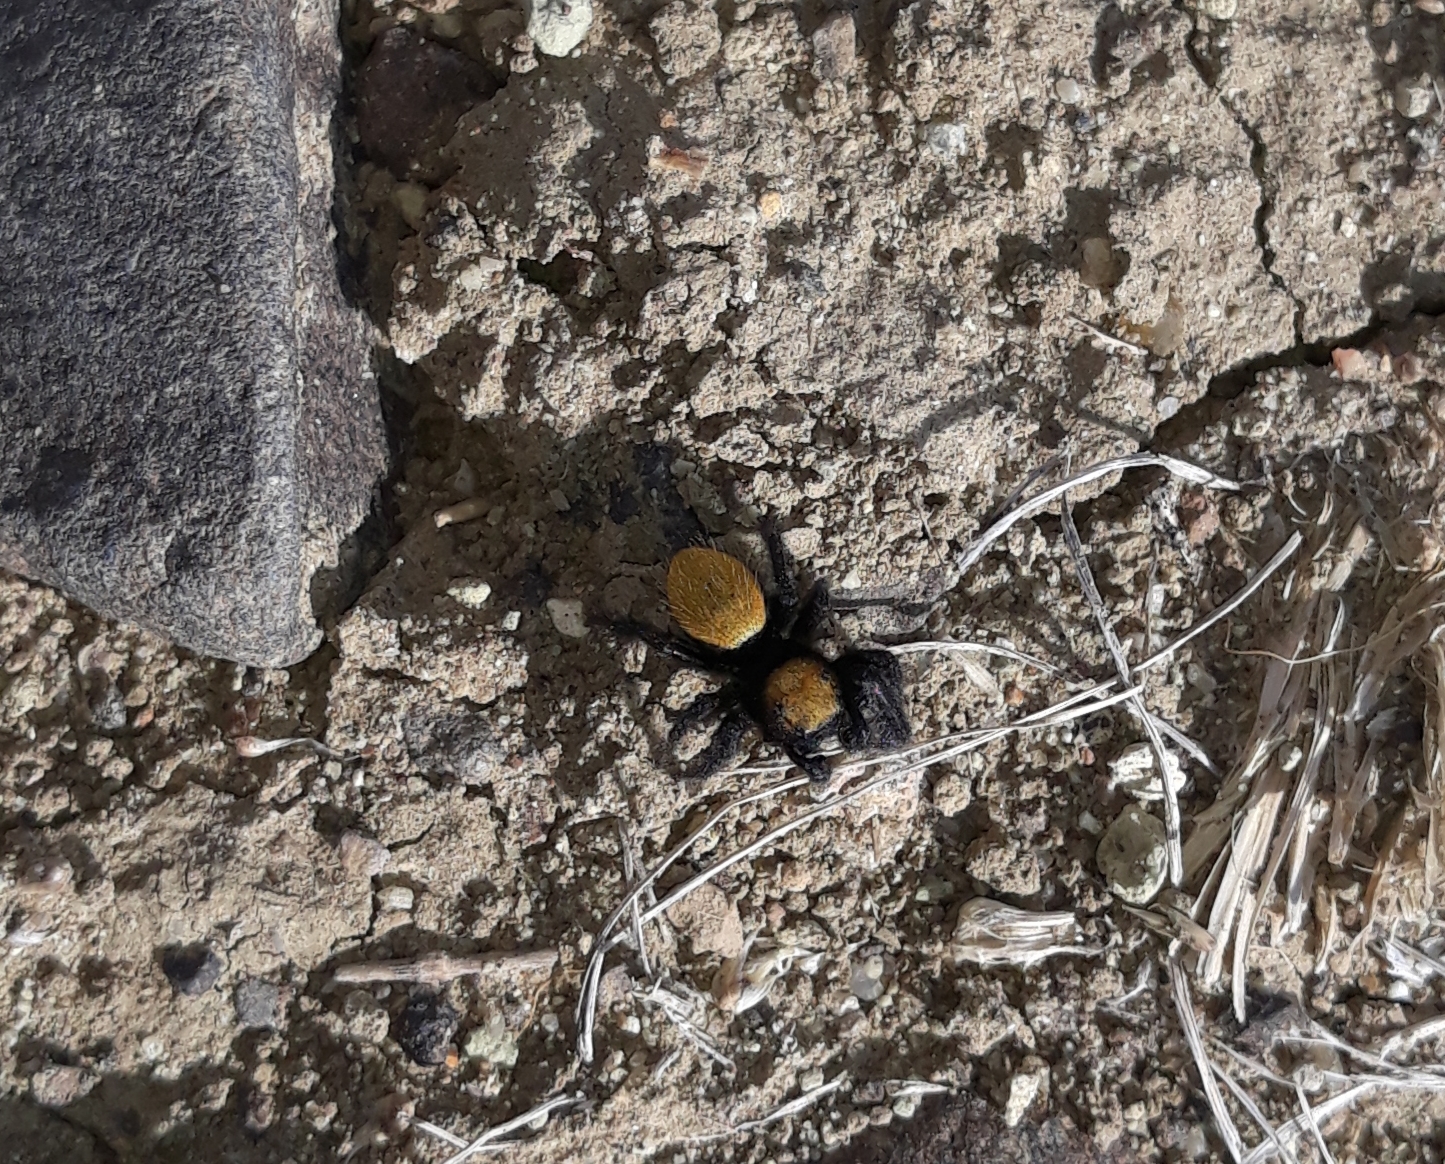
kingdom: Animalia
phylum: Arthropoda
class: Arachnida
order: Araneae
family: Salticidae
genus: Phidippus
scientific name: Phidippus nikites
